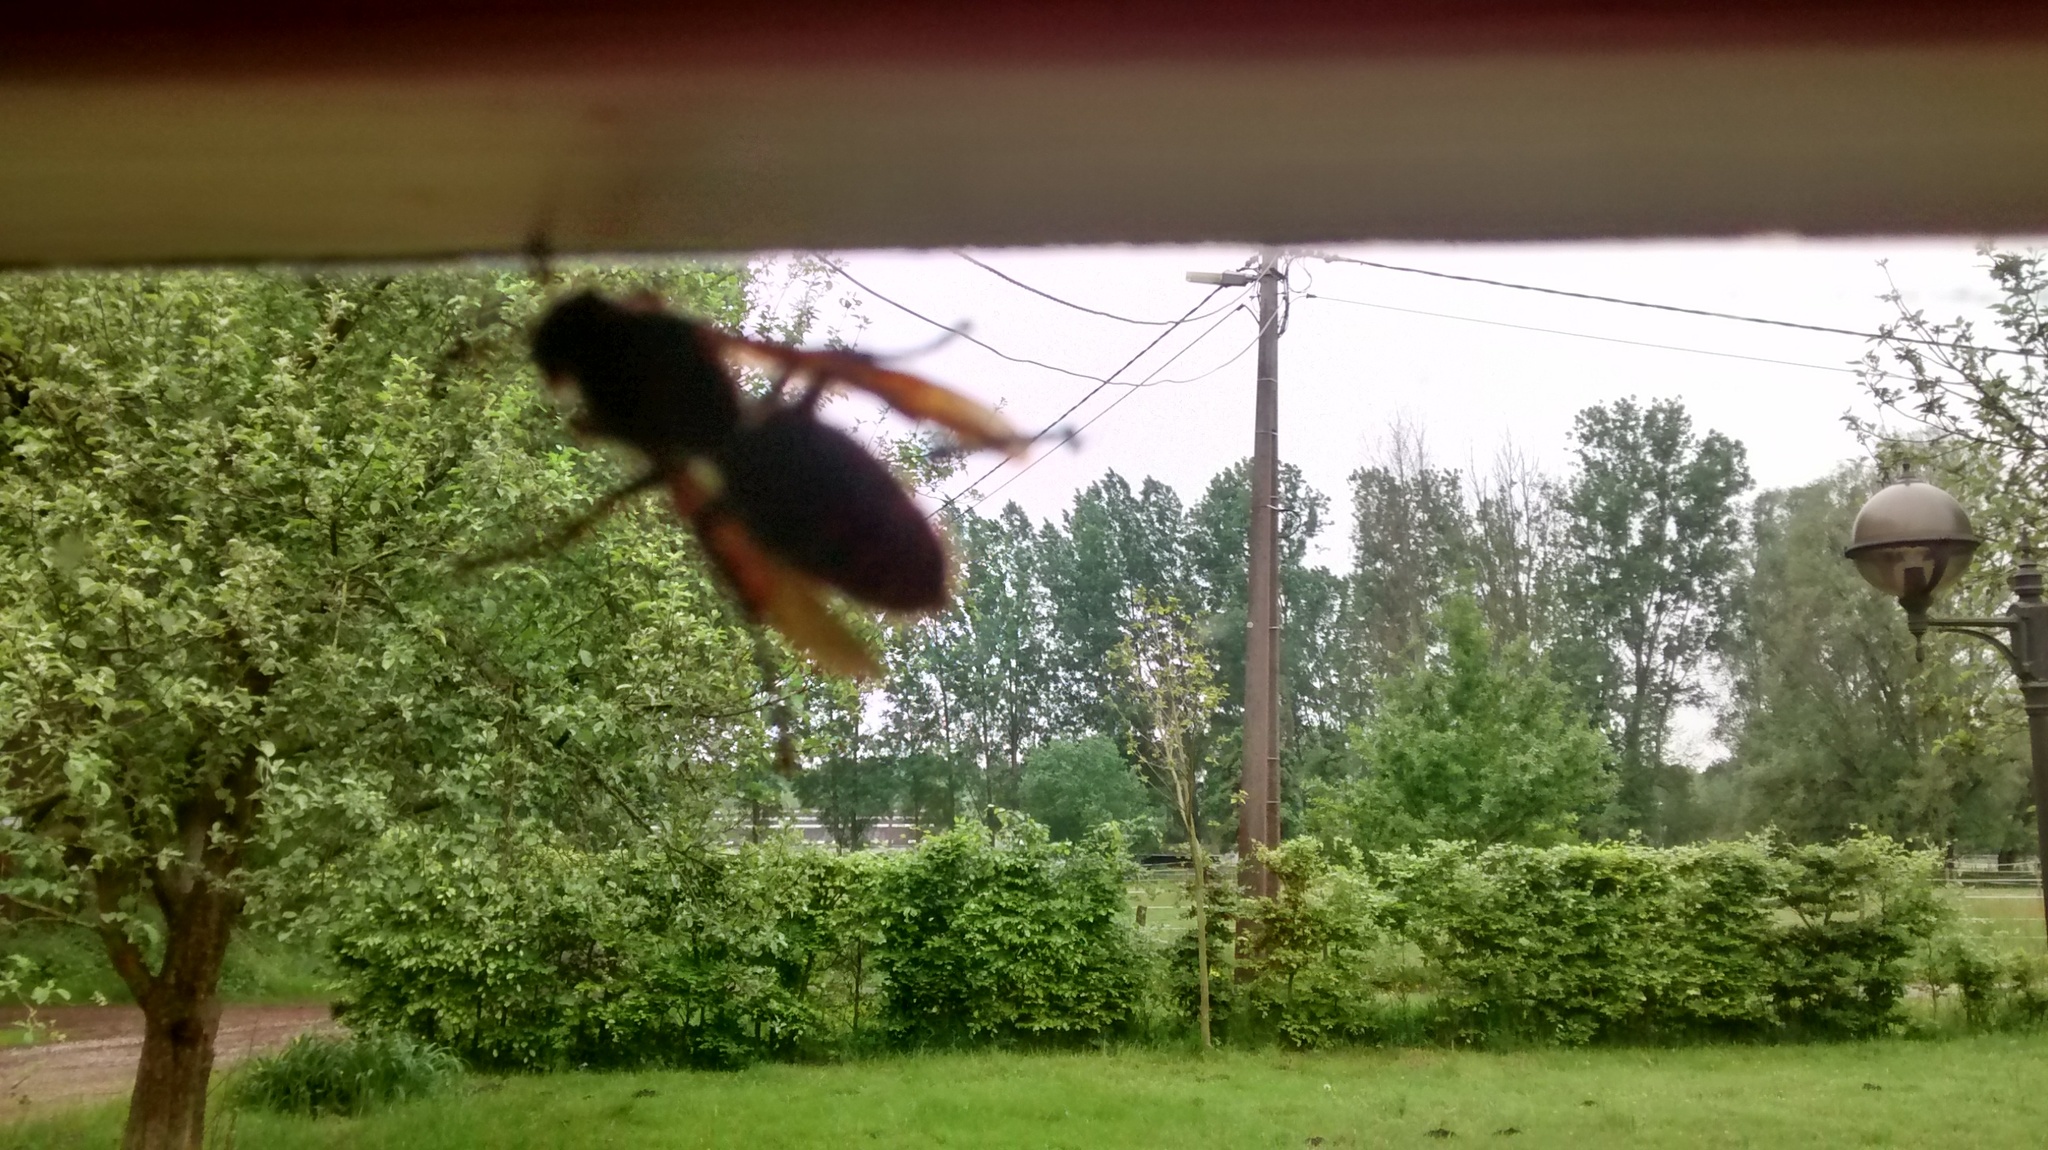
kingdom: Animalia
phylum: Arthropoda
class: Insecta
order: Hymenoptera
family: Vespidae
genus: Vespa
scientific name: Vespa crabro
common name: Hornet
